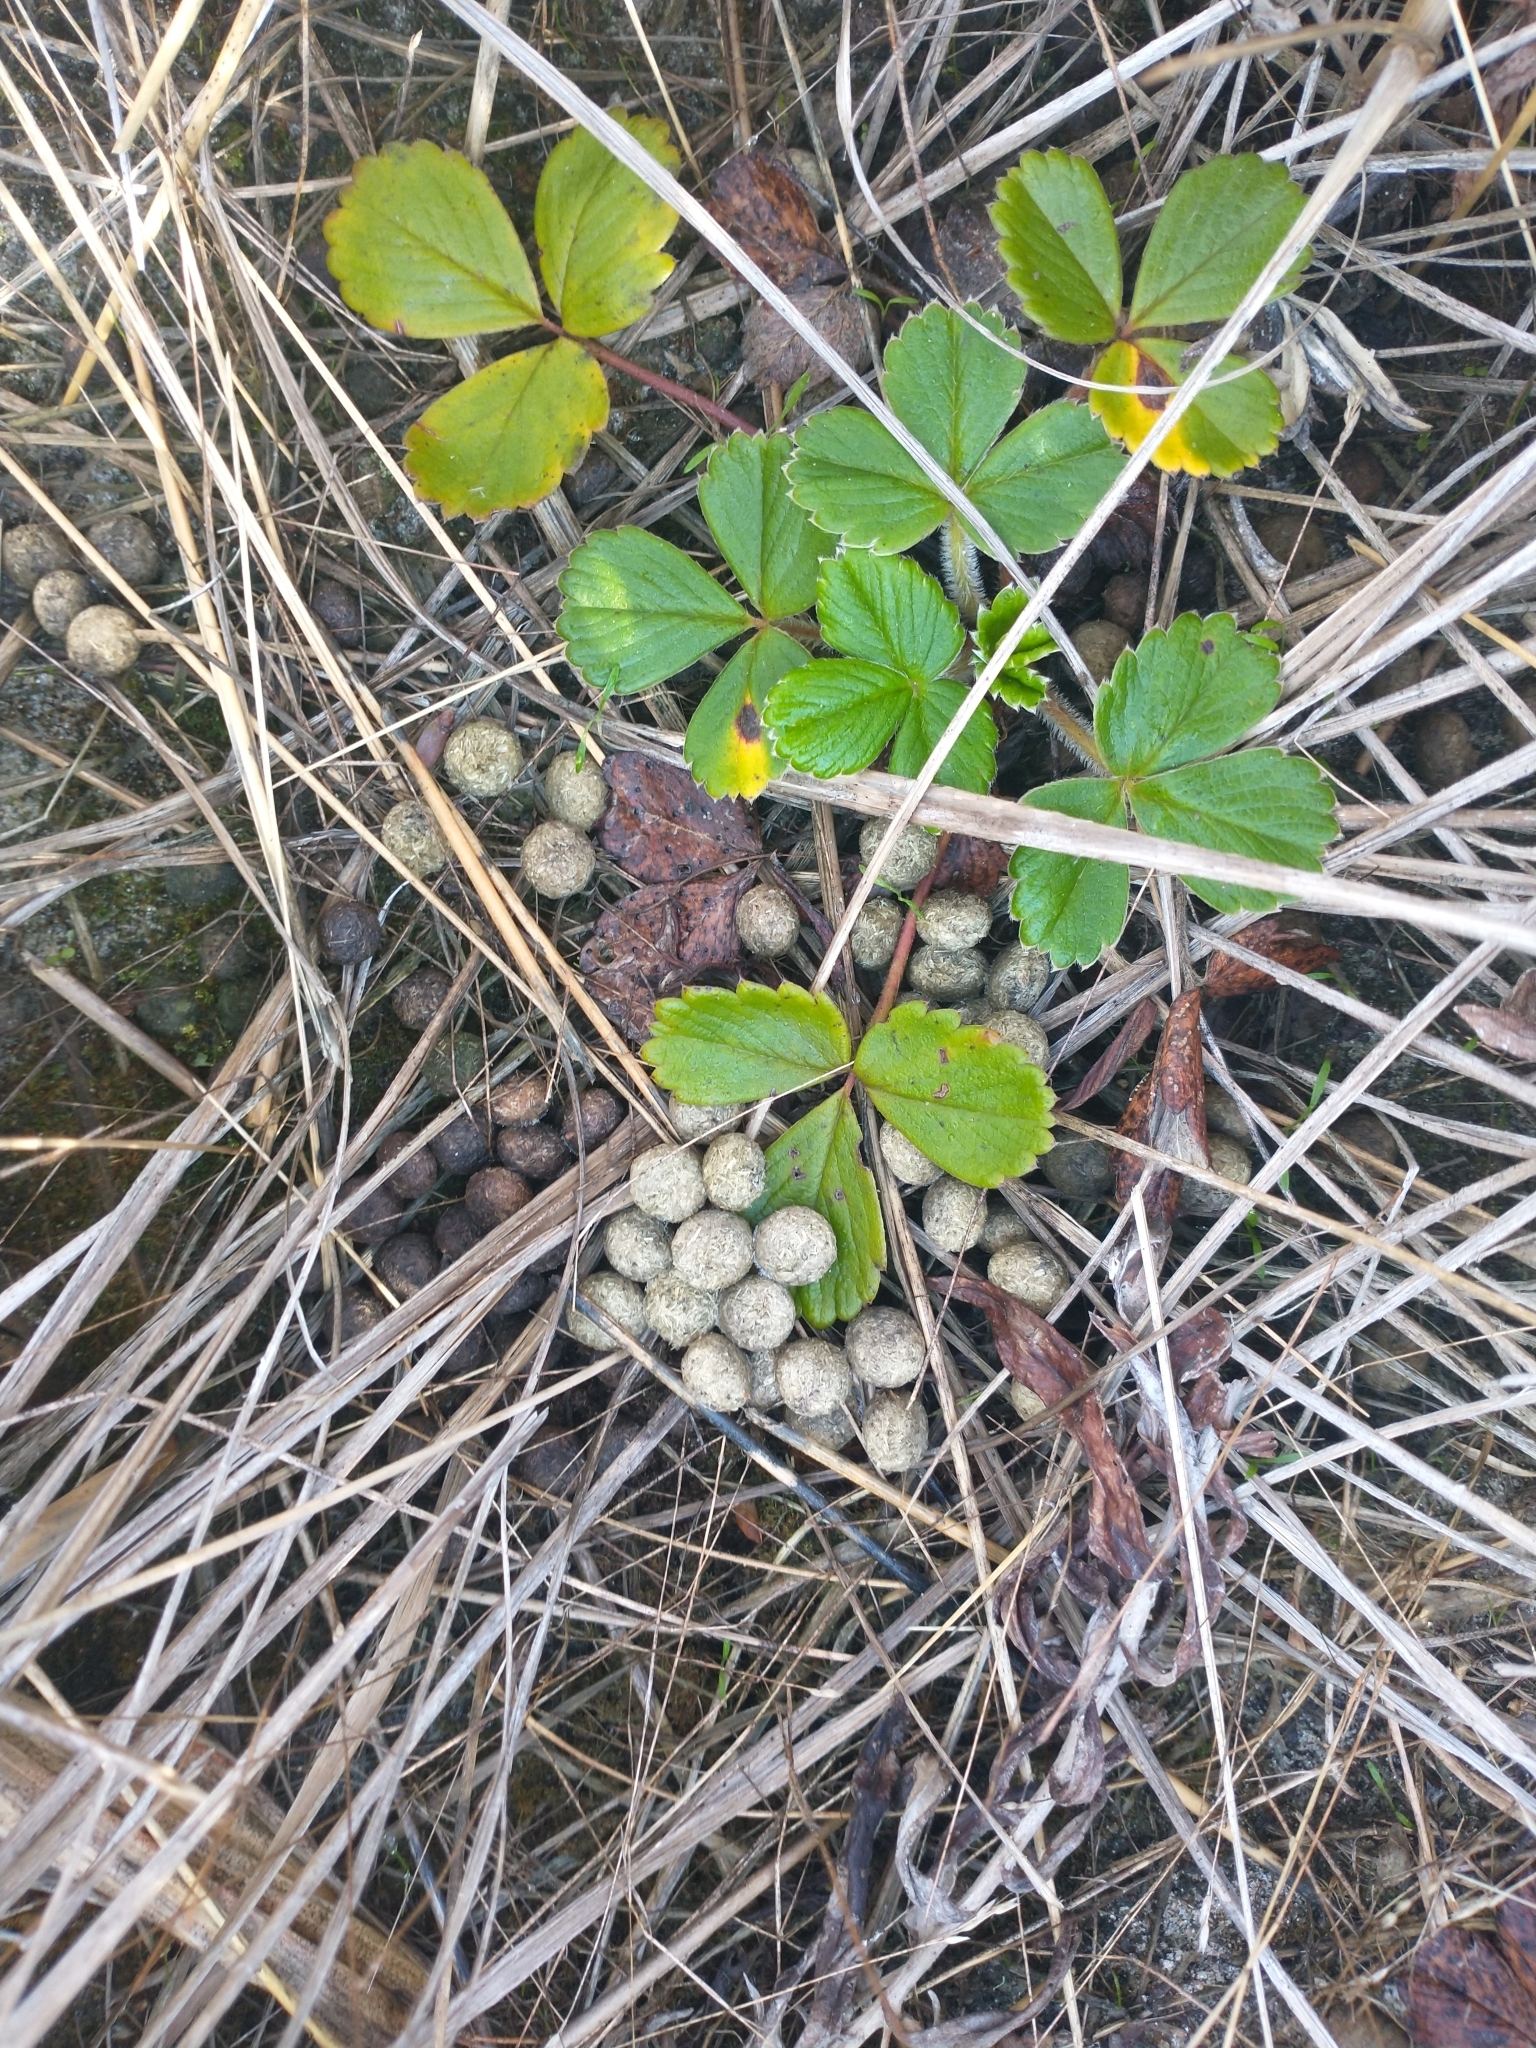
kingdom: Plantae
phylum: Tracheophyta
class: Magnoliopsida
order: Rosales
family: Rosaceae
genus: Fragaria
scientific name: Fragaria chiloensis
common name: Beach strawberry
